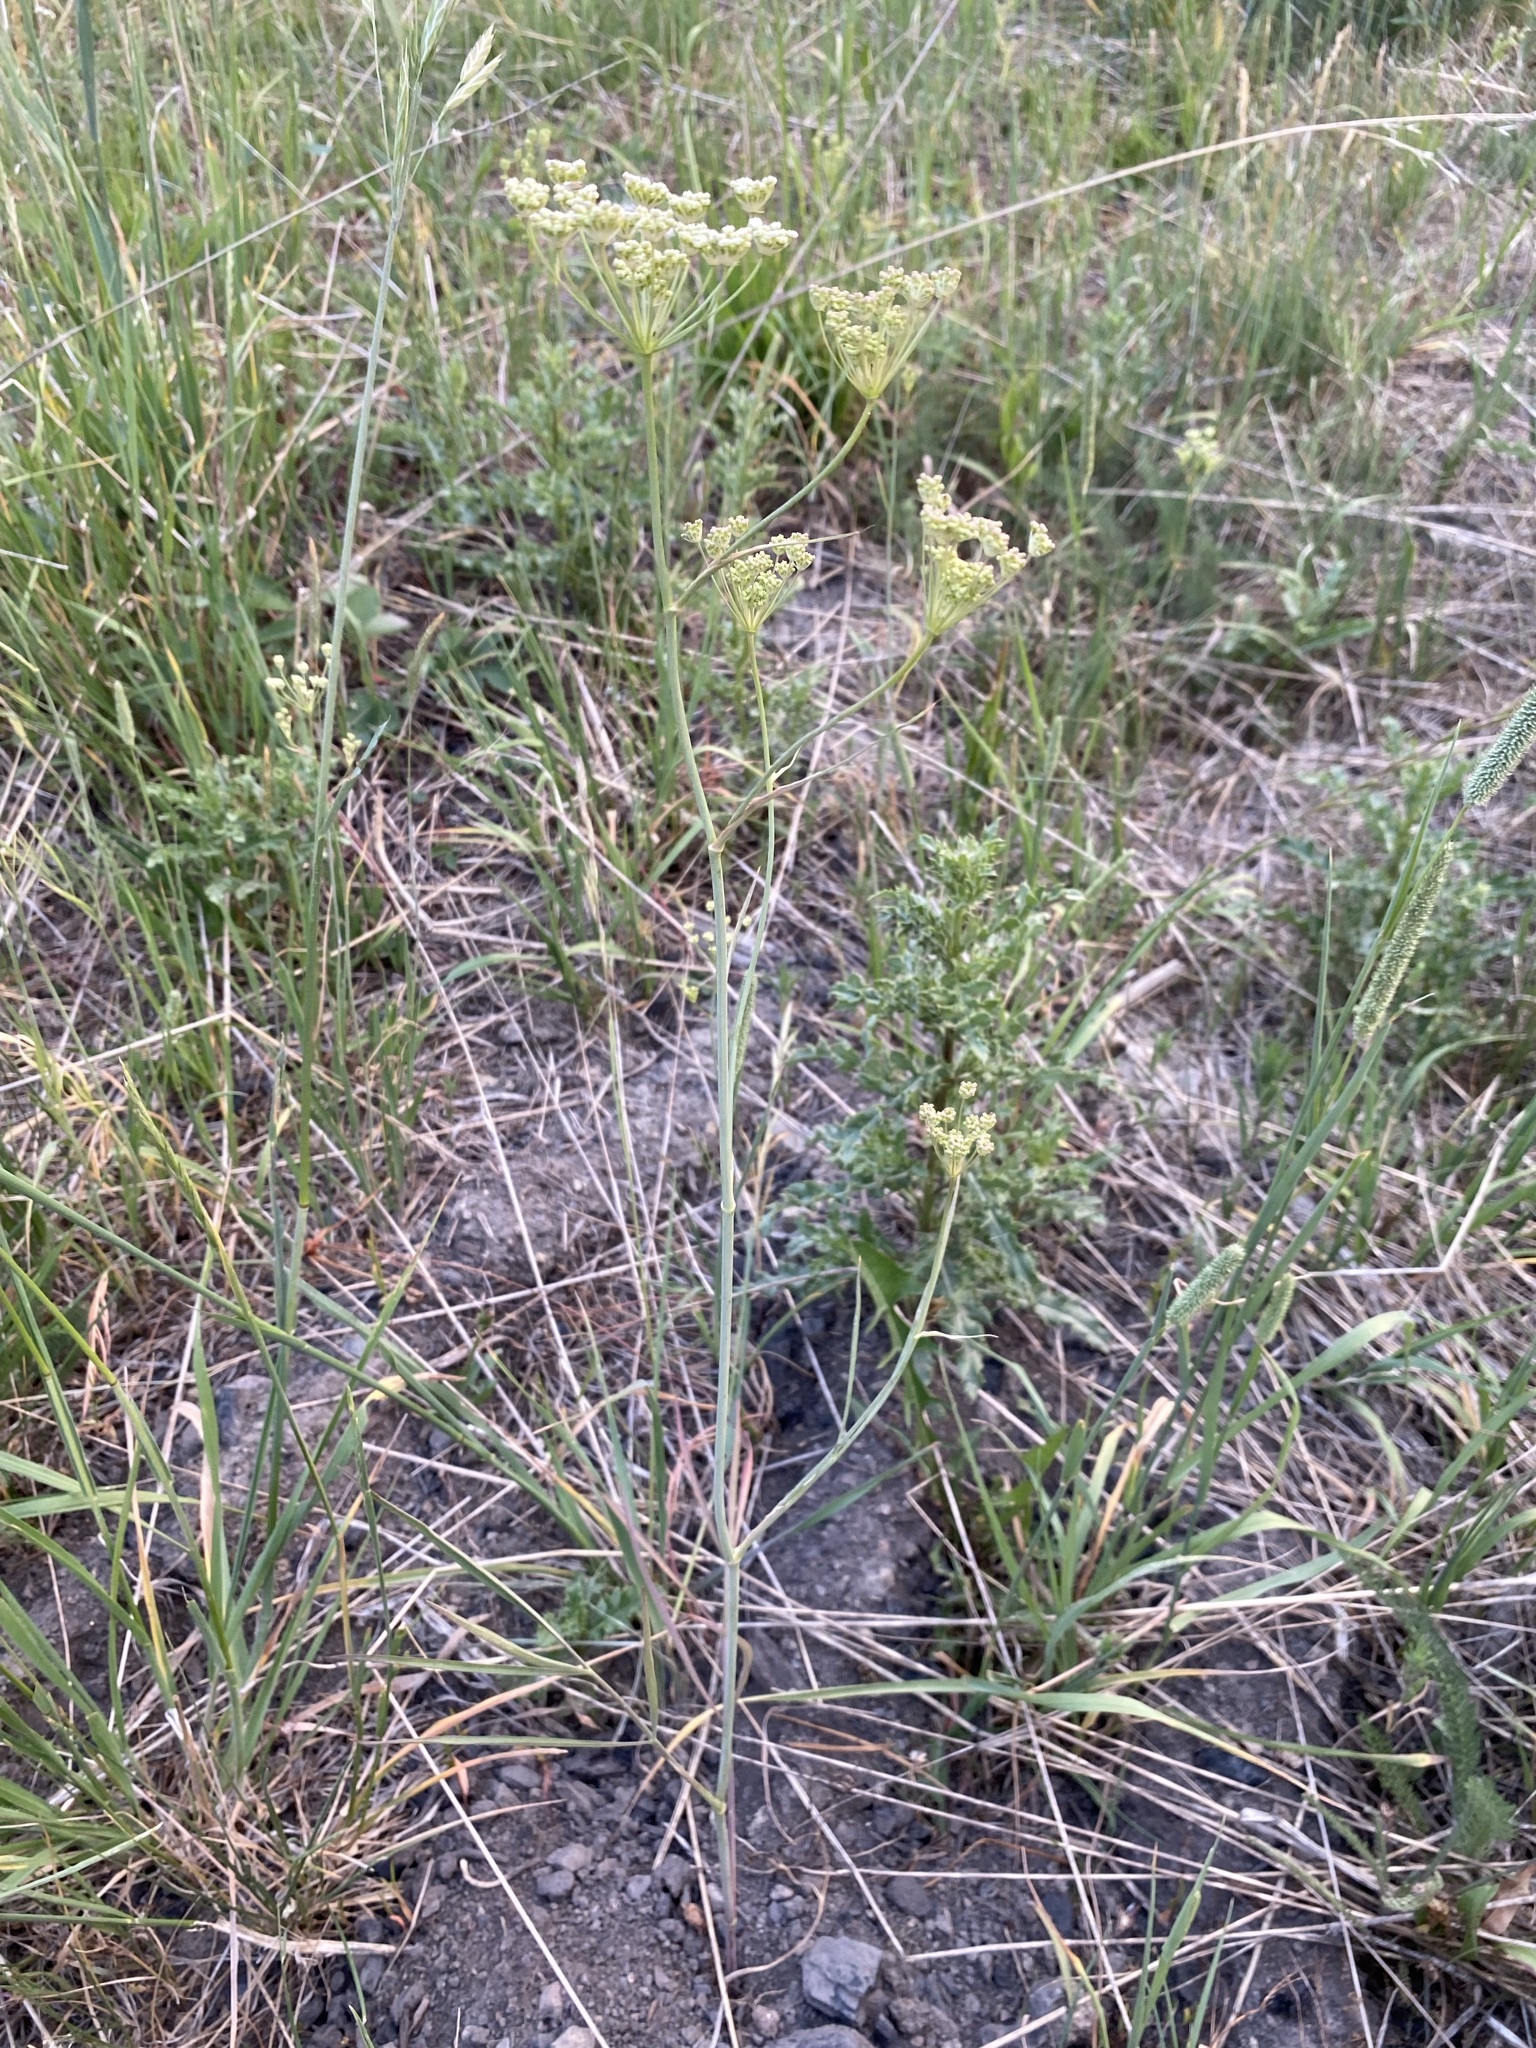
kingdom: Plantae
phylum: Tracheophyta
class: Magnoliopsida
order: Apiales
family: Apiaceae
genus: Perideridia
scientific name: Perideridia gairdneri
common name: False caraway
